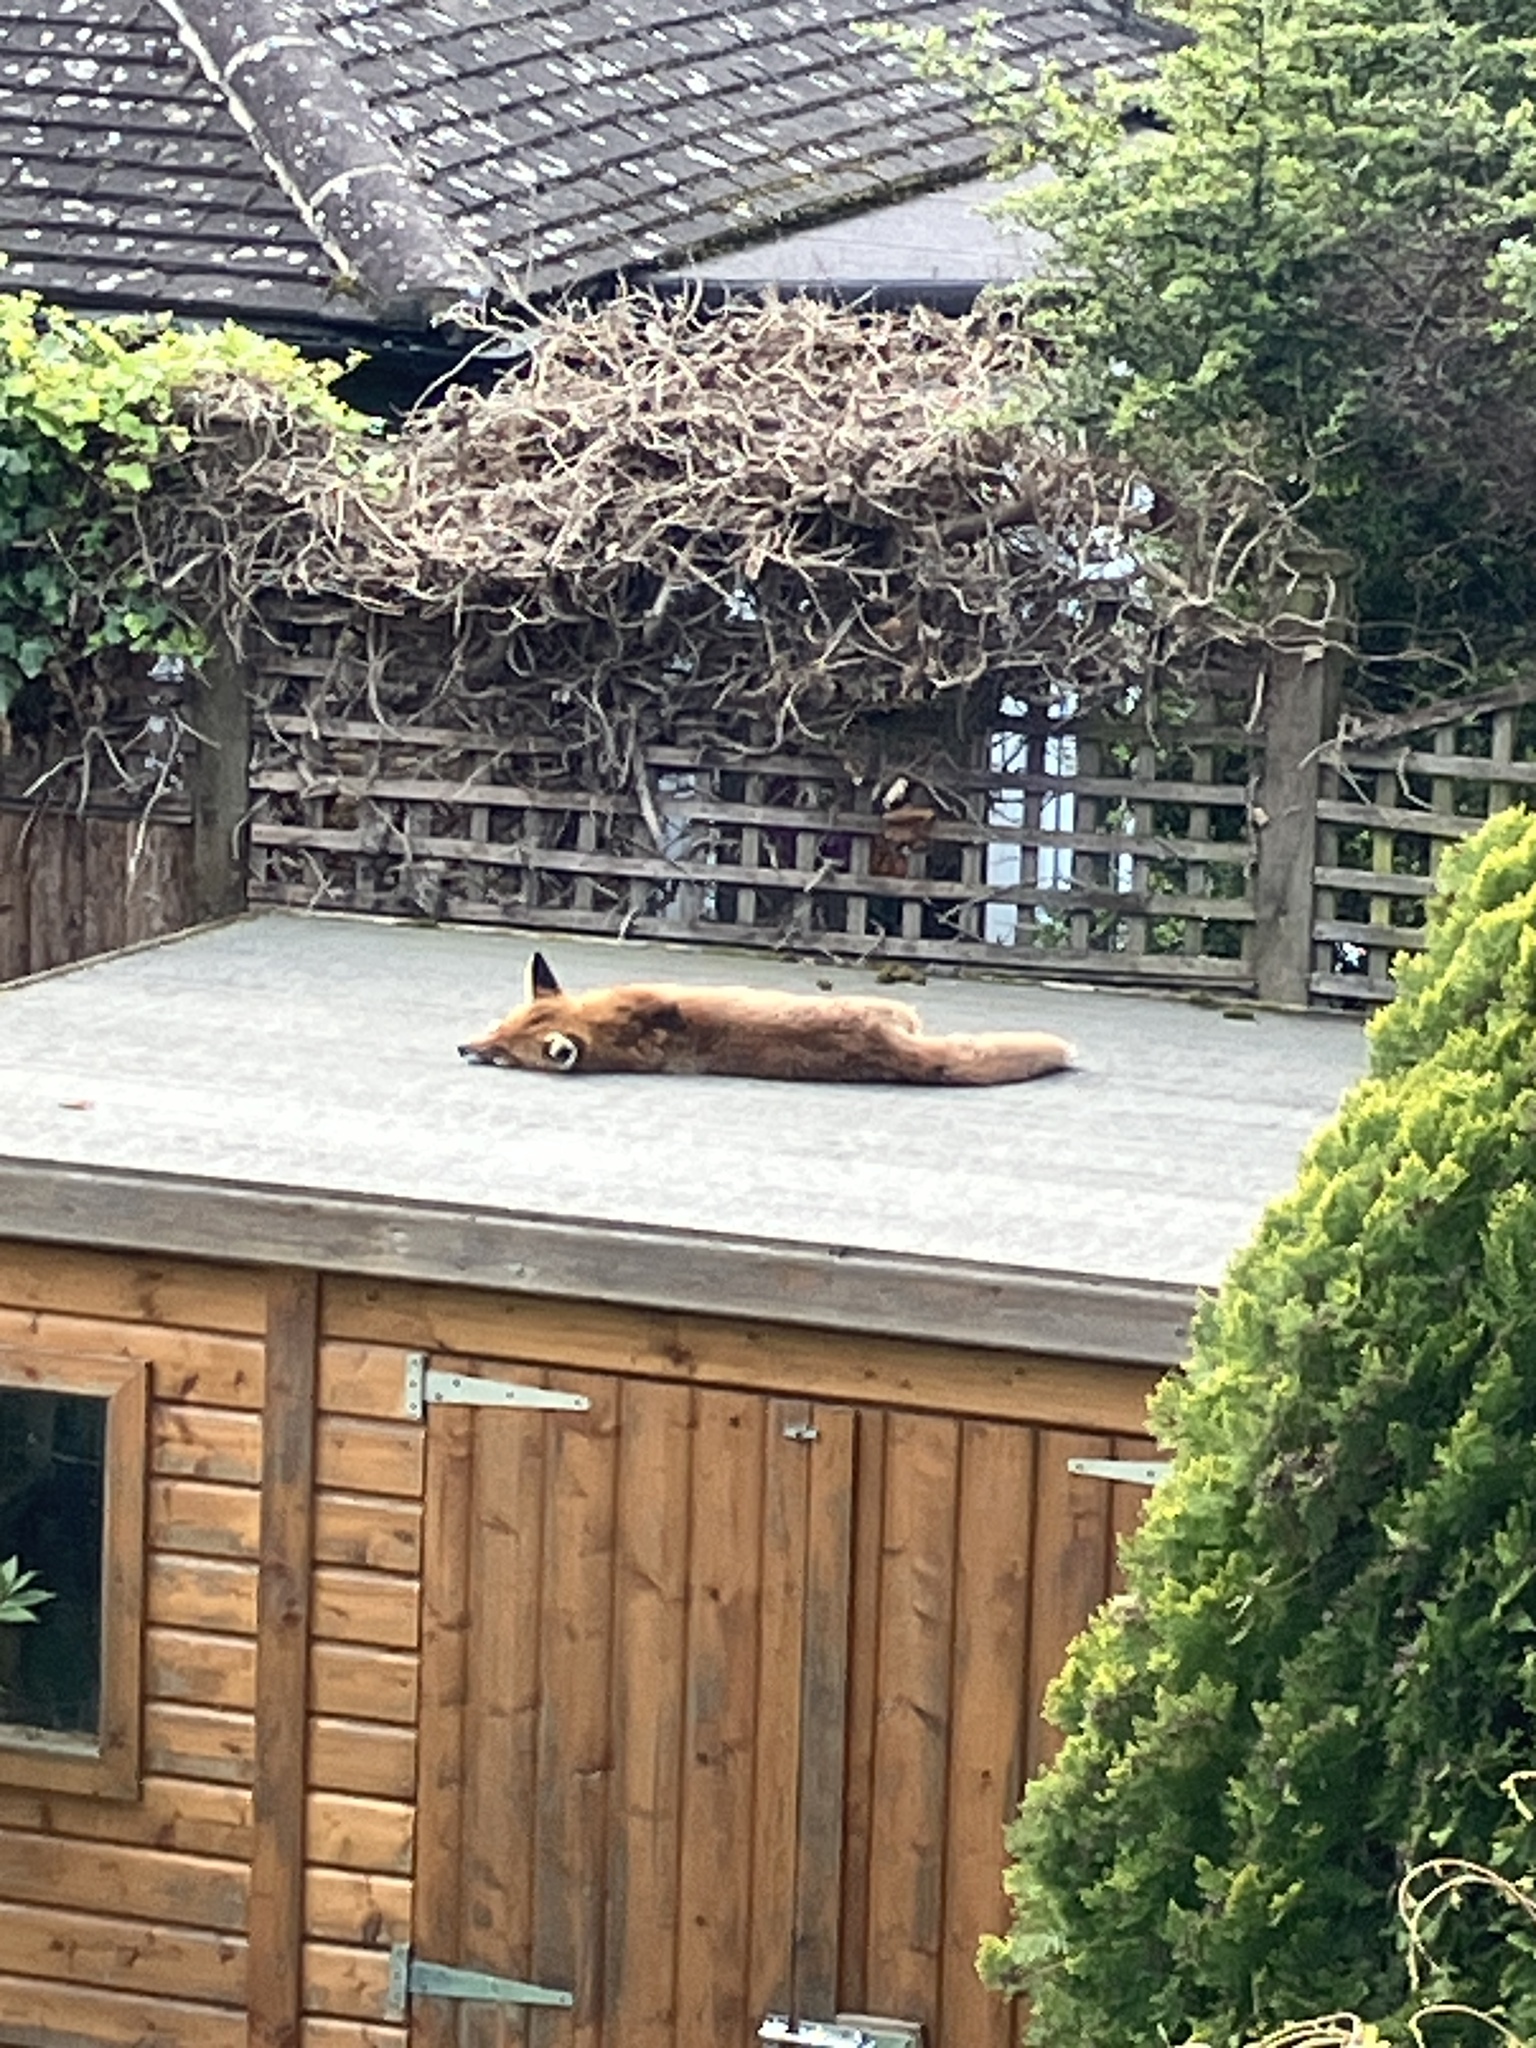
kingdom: Animalia
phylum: Chordata
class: Mammalia
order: Carnivora
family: Canidae
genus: Vulpes
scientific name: Vulpes vulpes
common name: Red fox
